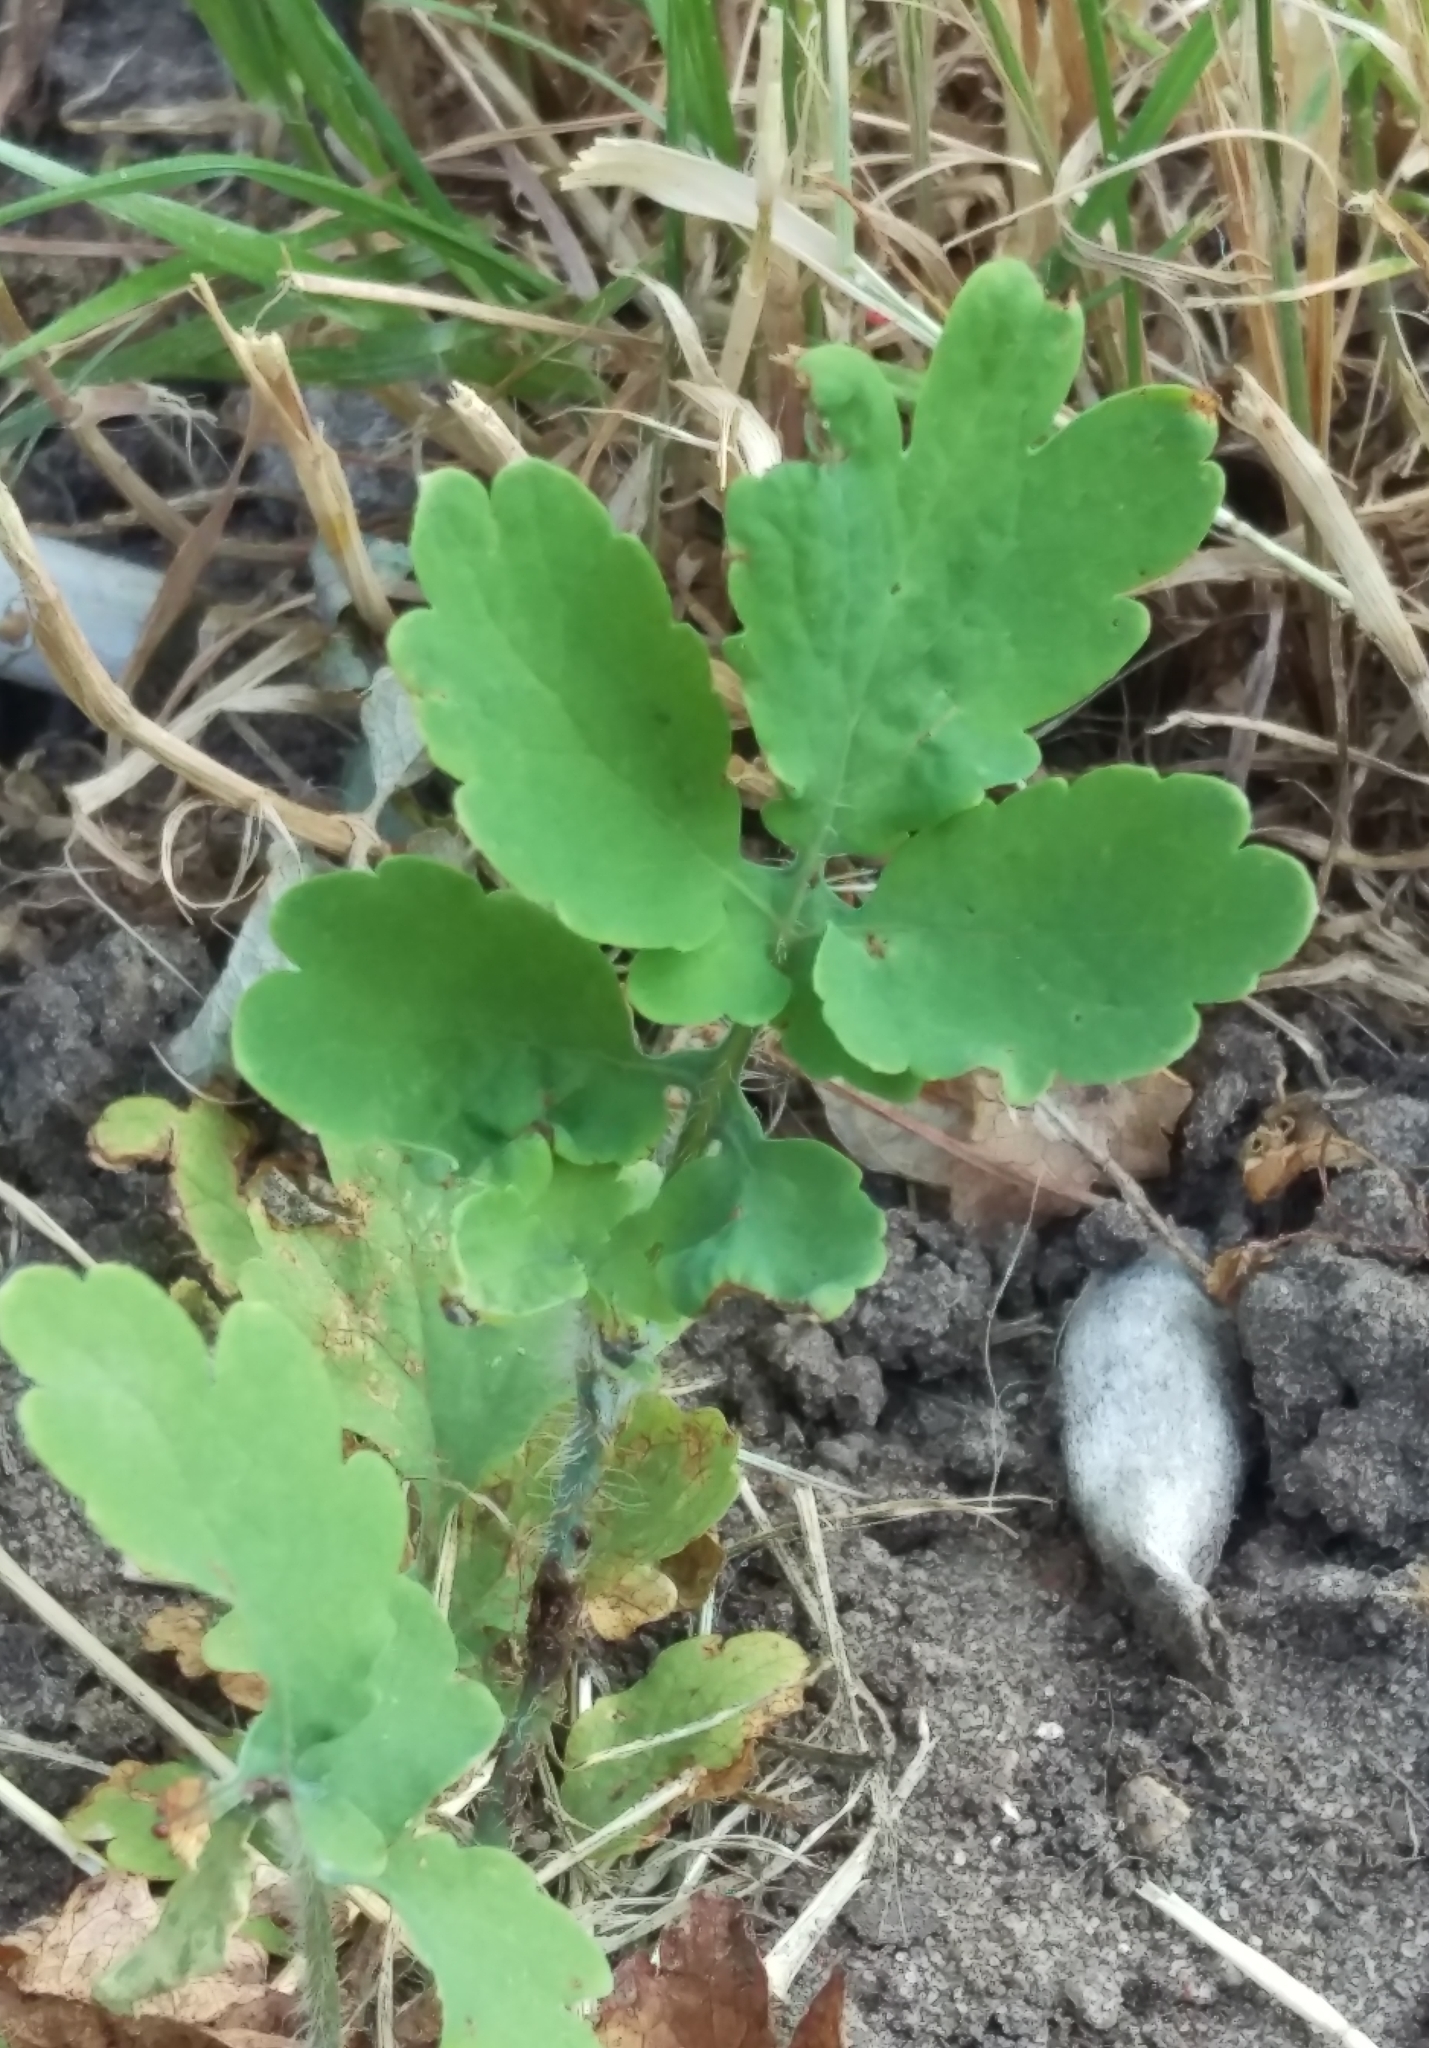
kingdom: Plantae
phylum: Tracheophyta
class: Magnoliopsida
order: Ranunculales
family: Papaveraceae
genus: Chelidonium
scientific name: Chelidonium majus
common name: Greater celandine
